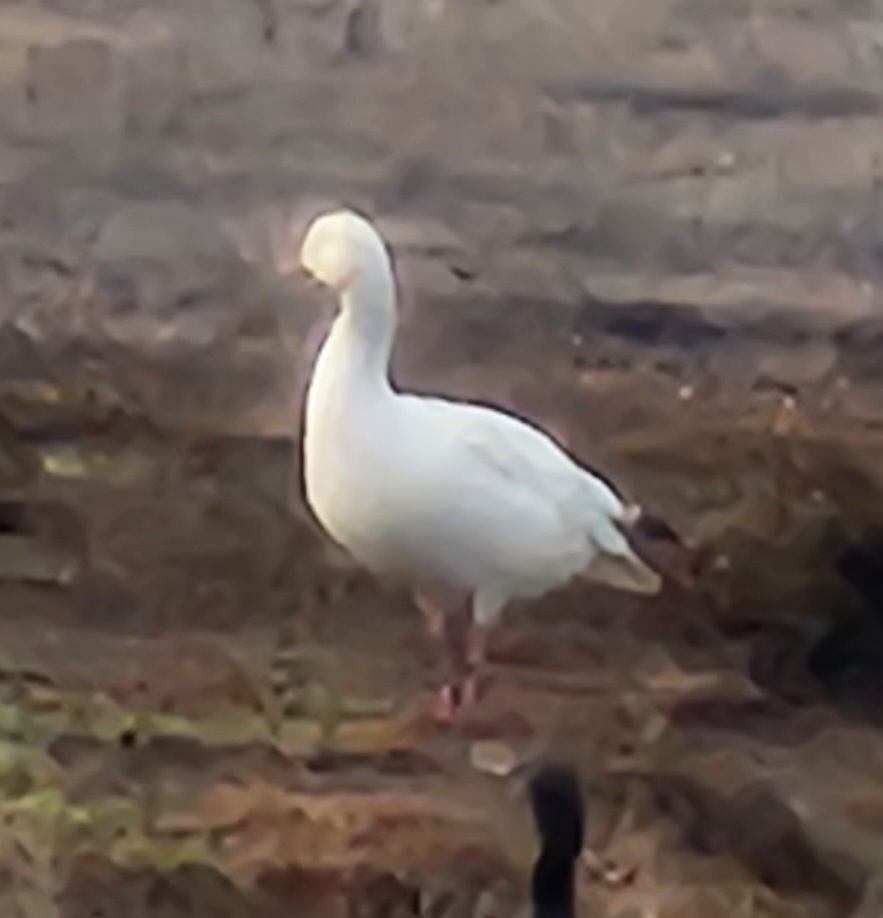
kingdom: Animalia
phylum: Chordata
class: Aves
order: Anseriformes
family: Anatidae
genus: Anser
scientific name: Anser caerulescens
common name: Snow goose
